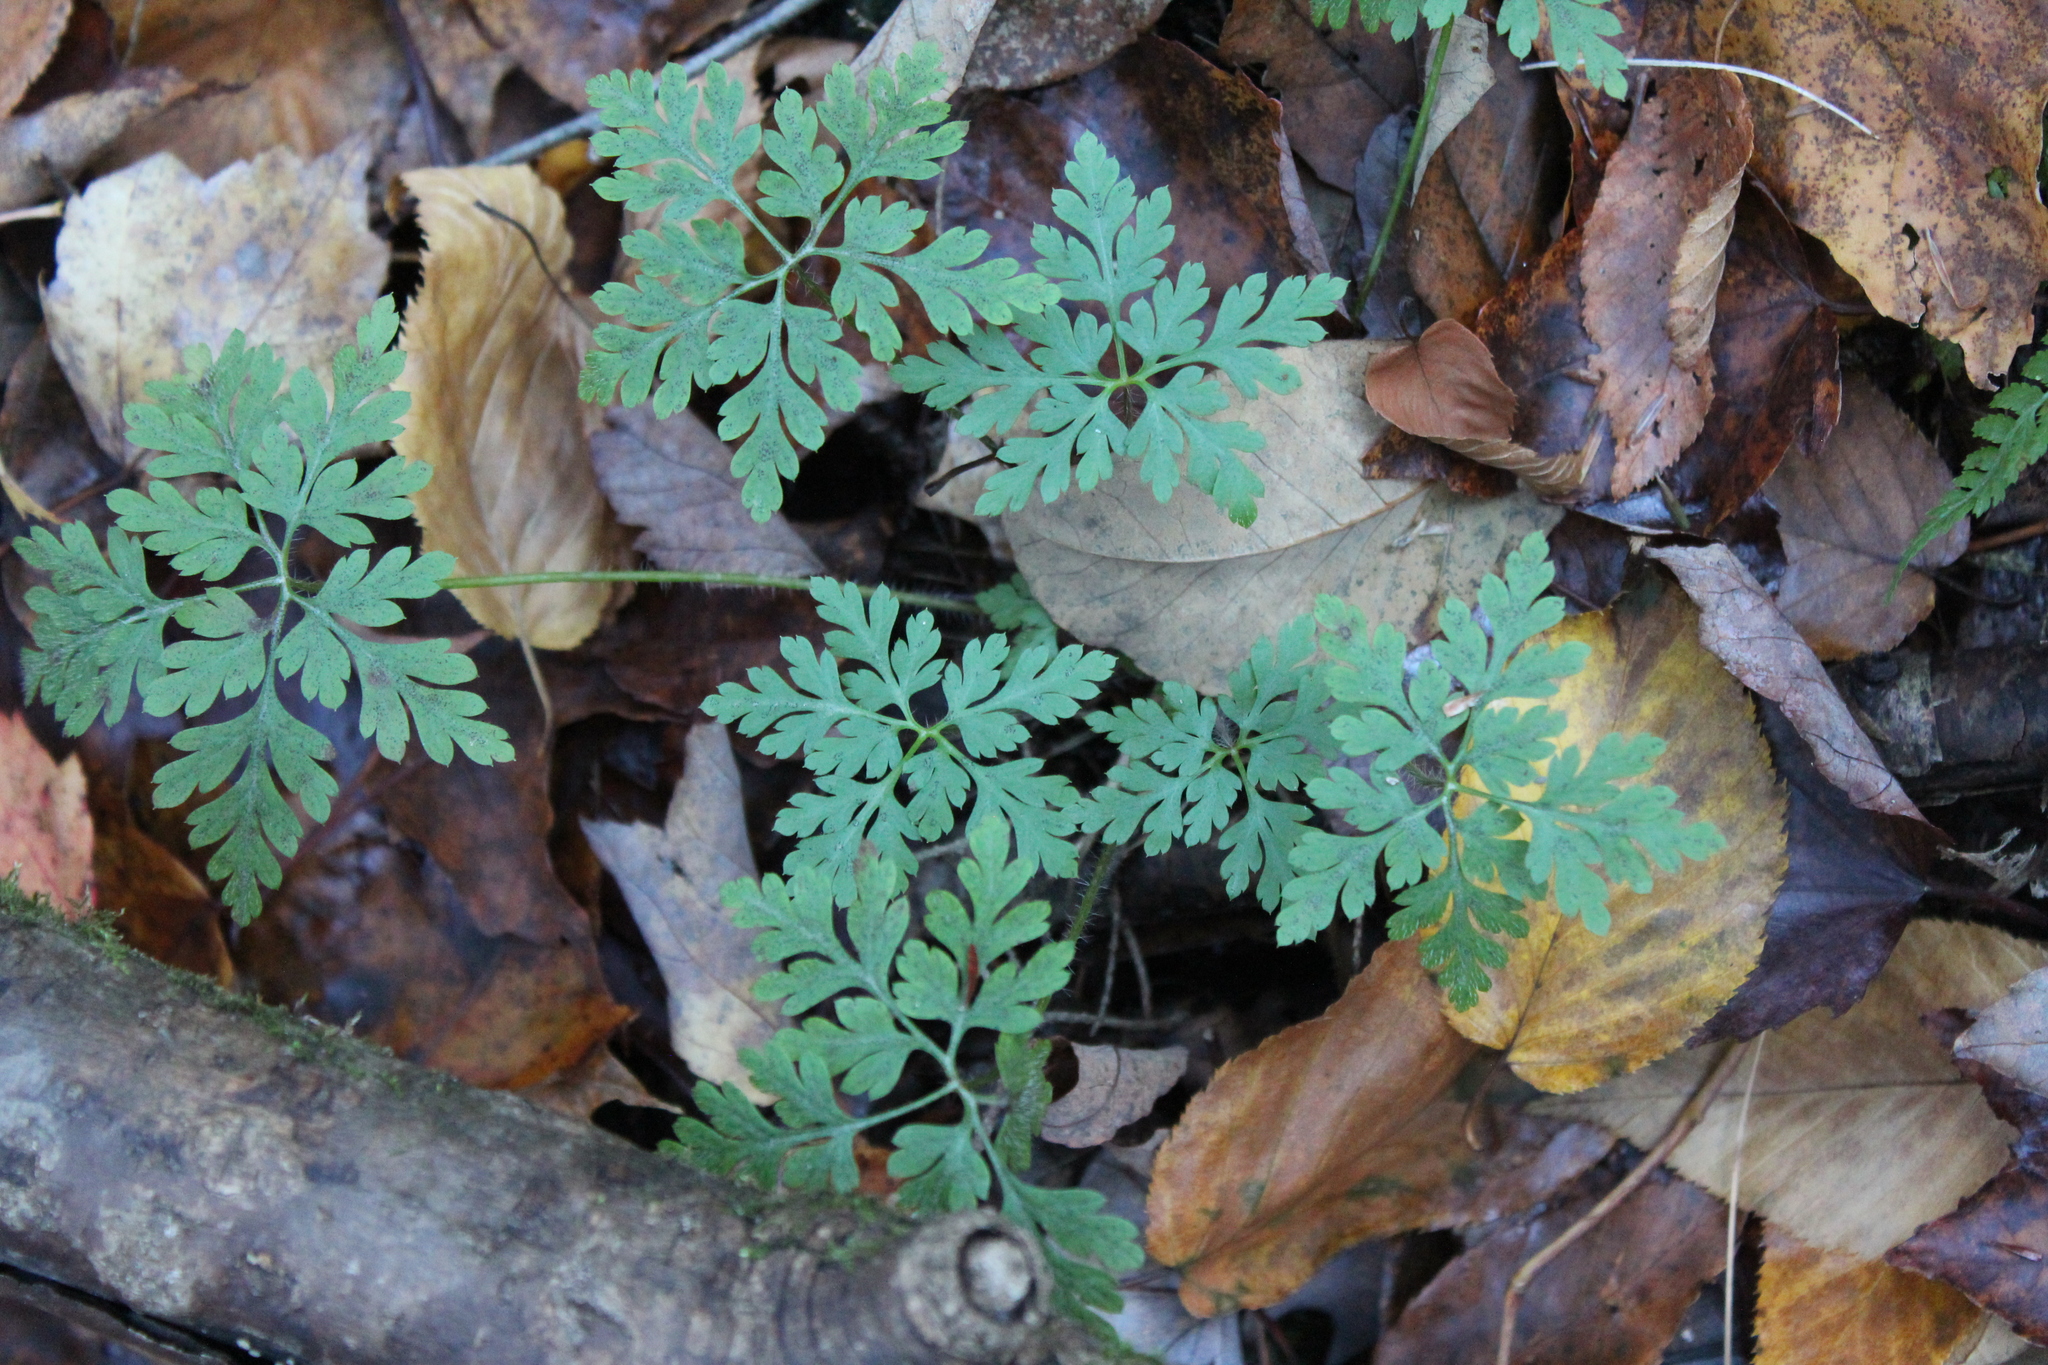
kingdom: Plantae
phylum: Tracheophyta
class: Magnoliopsida
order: Geraniales
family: Geraniaceae
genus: Geranium
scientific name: Geranium robertianum
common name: Herb-robert
